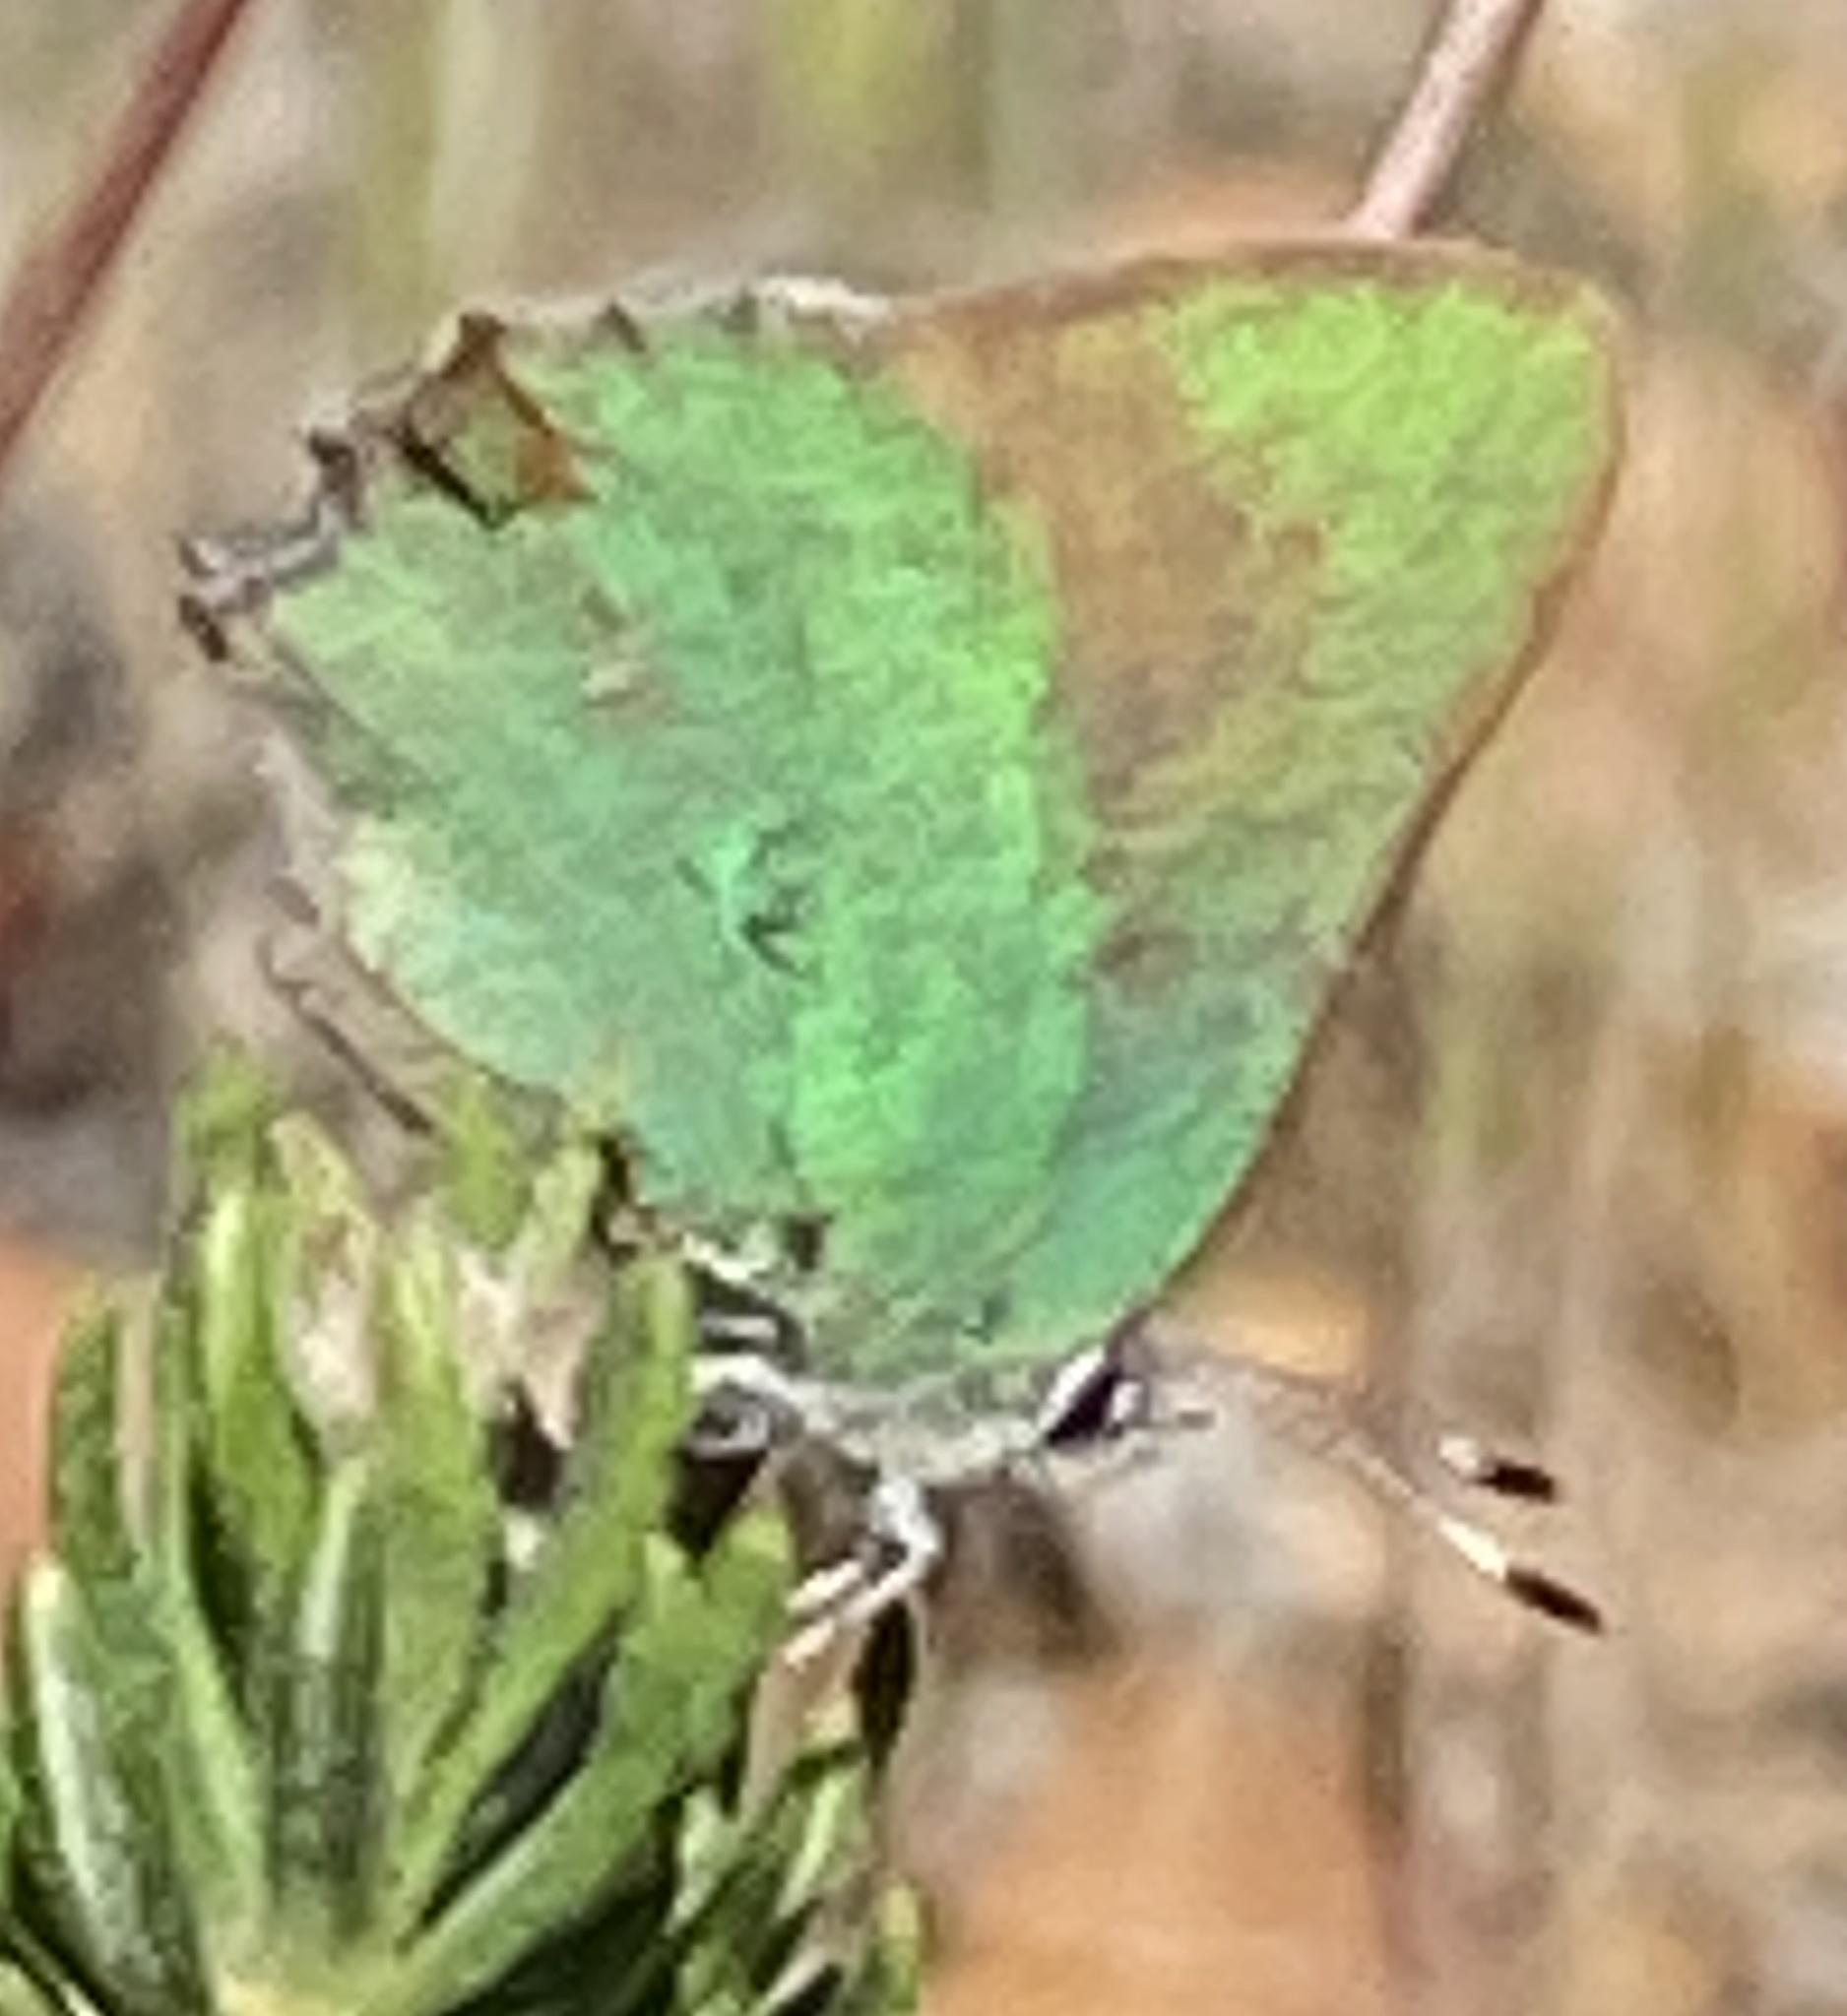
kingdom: Animalia
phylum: Arthropoda
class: Insecta
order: Lepidoptera
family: Lycaenidae
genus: Callophrys
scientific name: Callophrys dumetorum
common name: Bramble hairstreak
